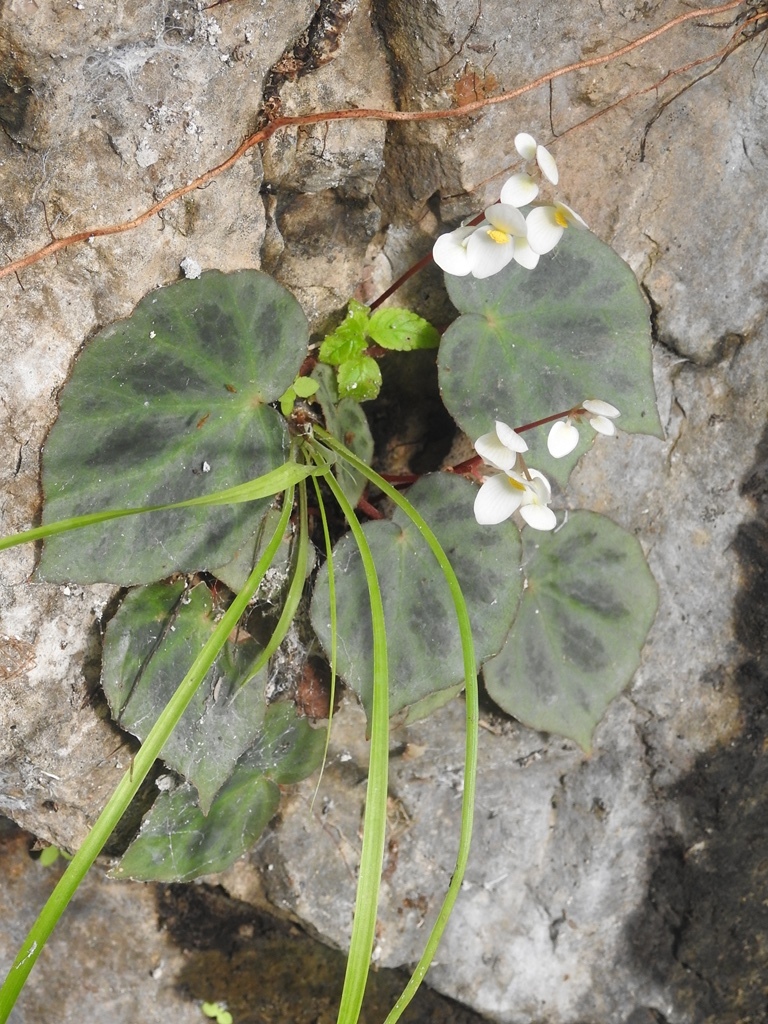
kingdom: Plantae
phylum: Tracheophyta
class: Magnoliopsida
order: Cucurbitales
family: Begoniaceae
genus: Begonia
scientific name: Begonia plebeja
